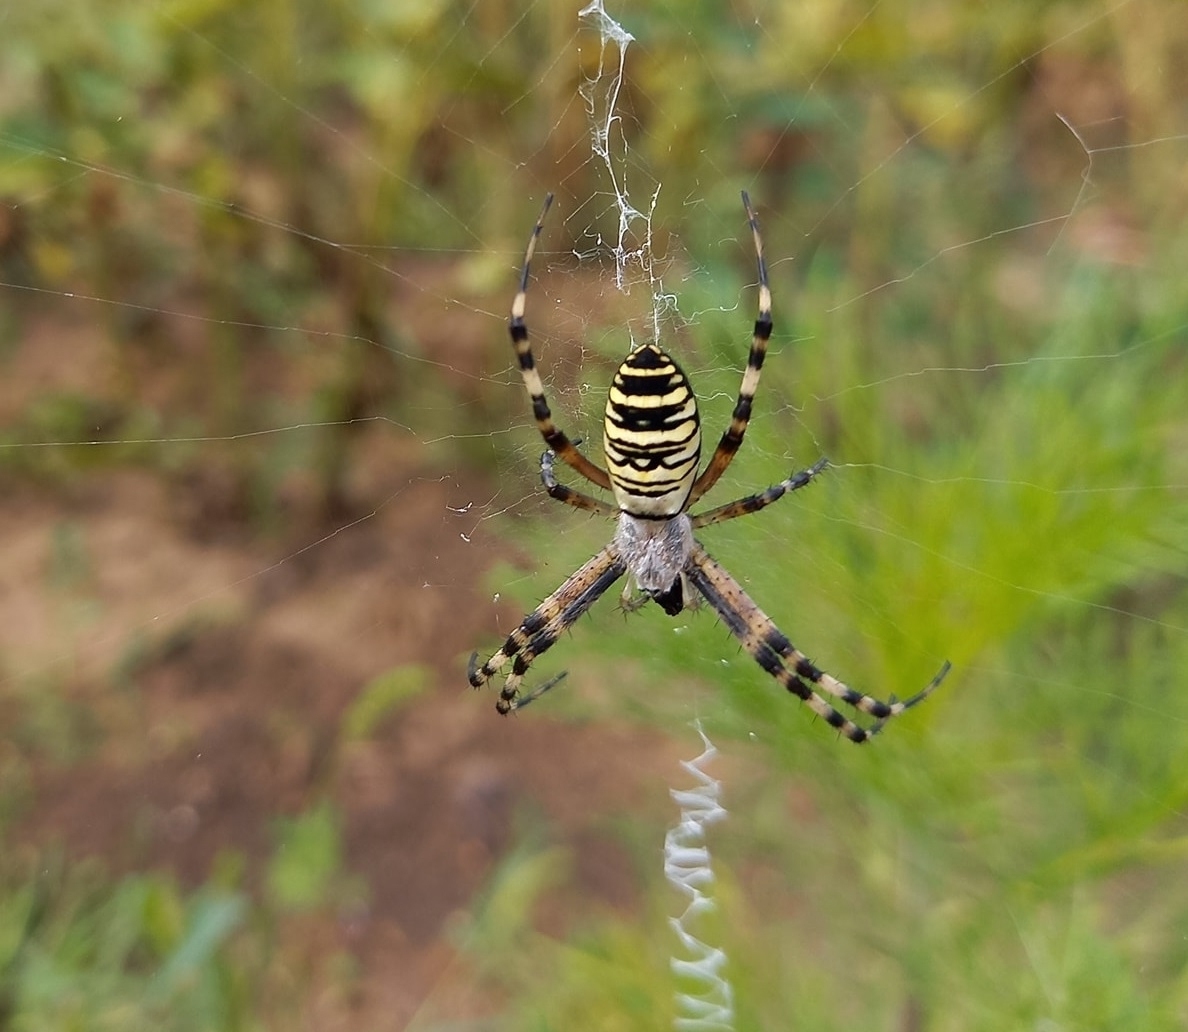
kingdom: Animalia
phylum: Arthropoda
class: Arachnida
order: Araneae
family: Araneidae
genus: Argiope
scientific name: Argiope bruennichi
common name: Wasp spider
